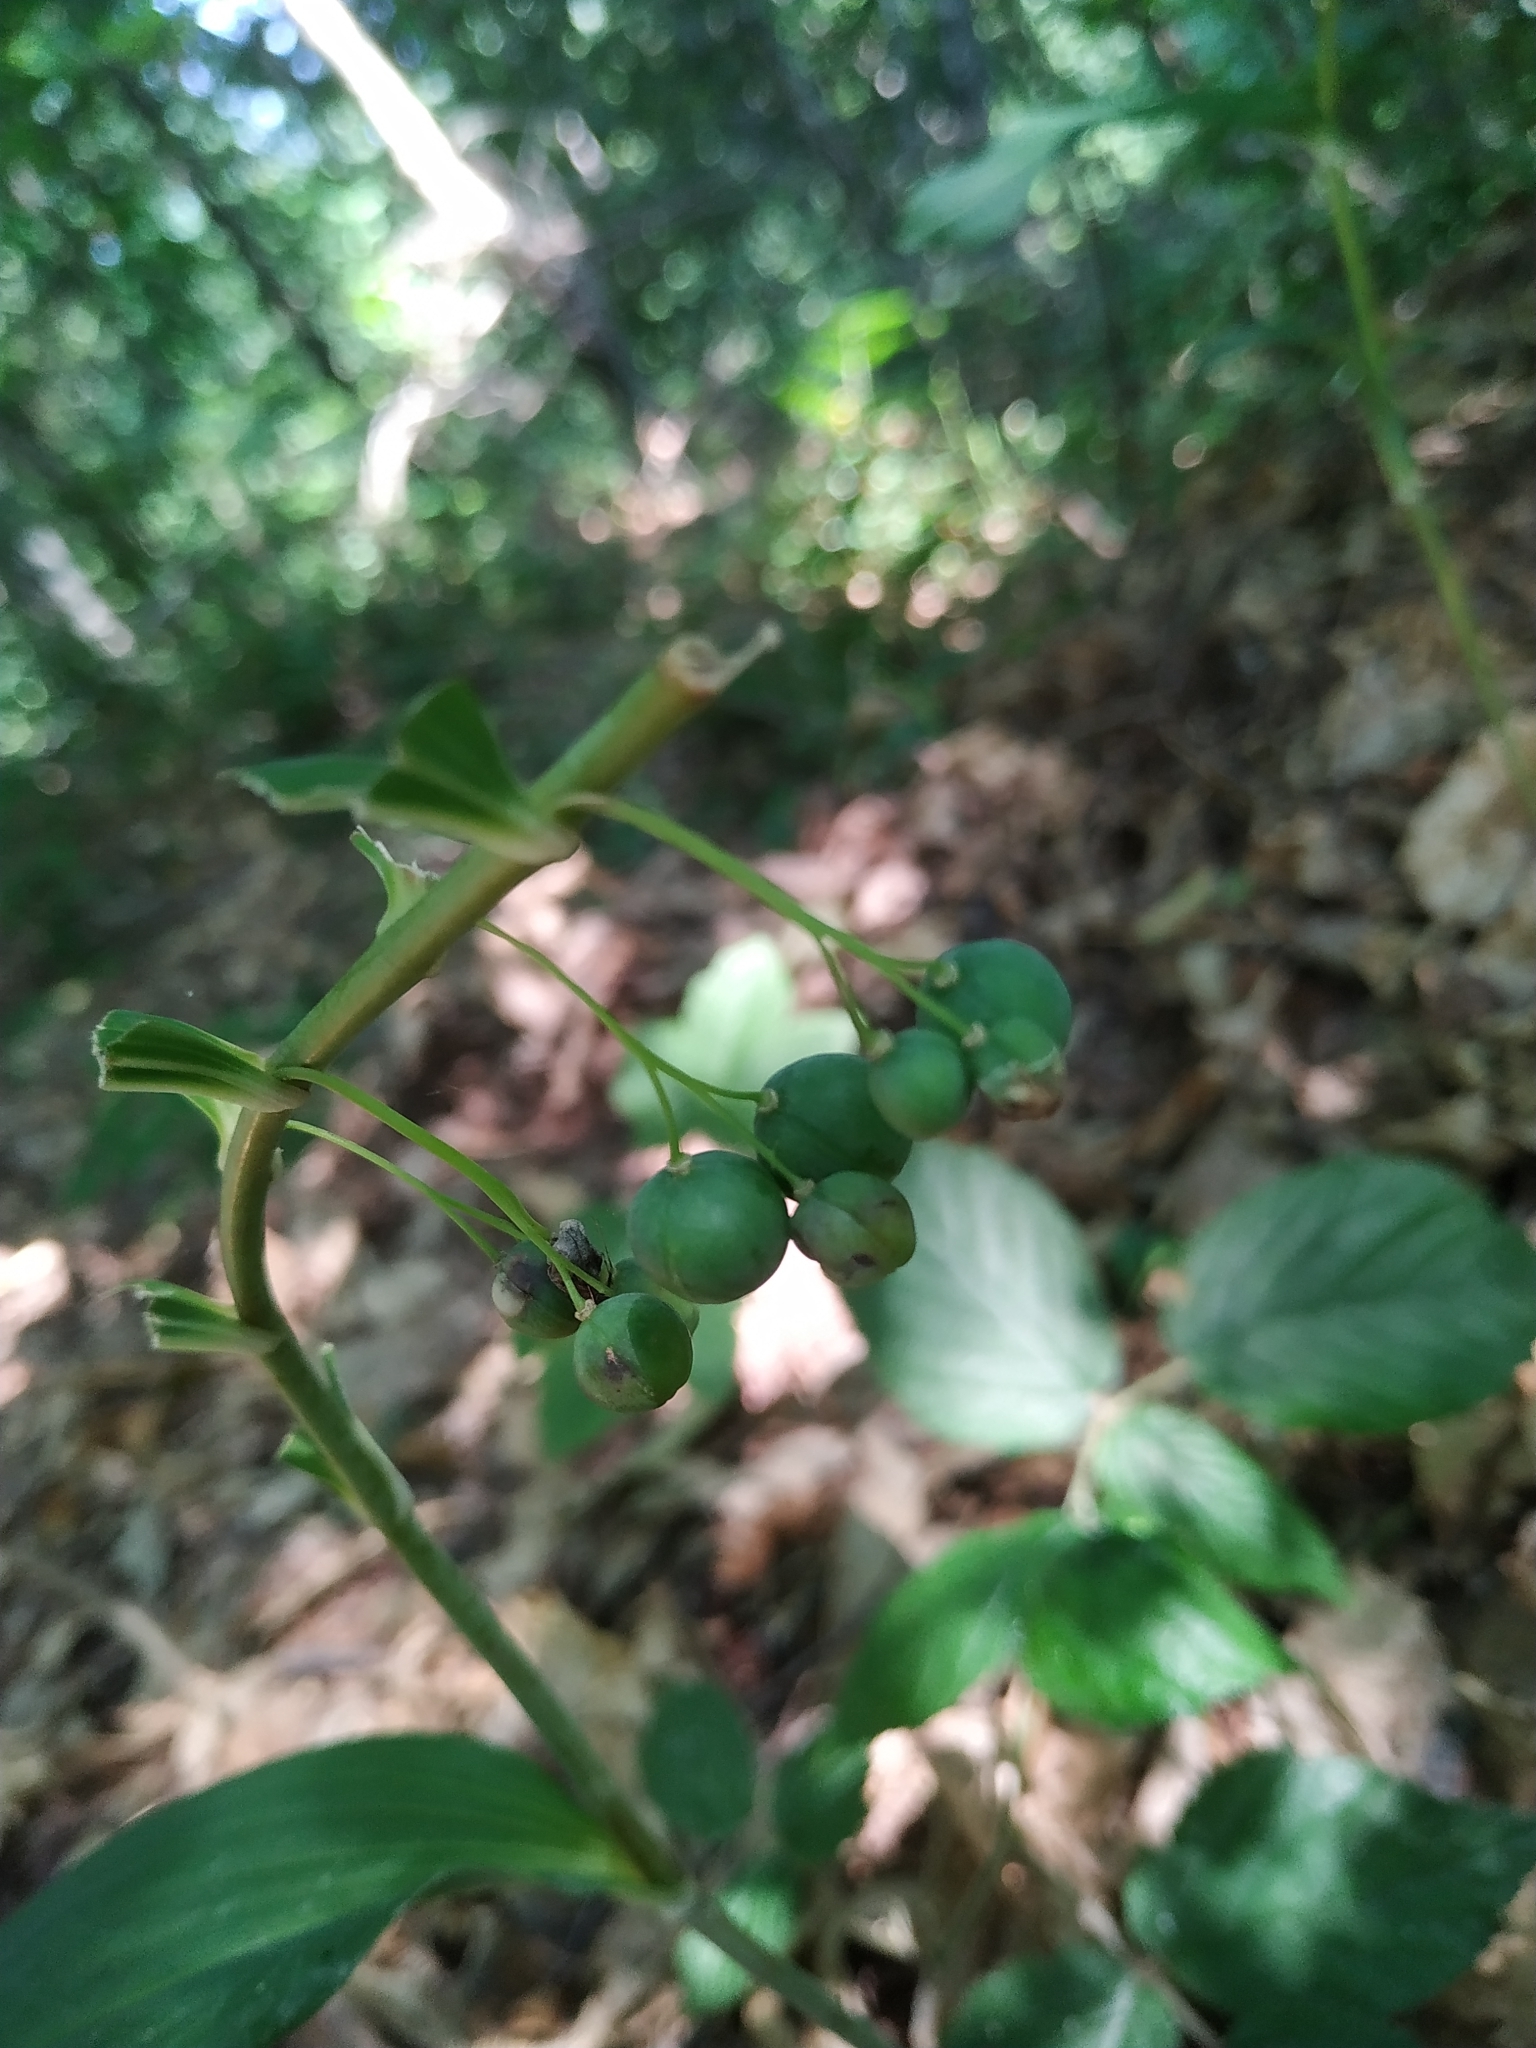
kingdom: Plantae
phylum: Tracheophyta
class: Liliopsida
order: Asparagales
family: Asparagaceae
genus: Polygonatum
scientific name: Polygonatum multiflorum
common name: Solomon's-seal
